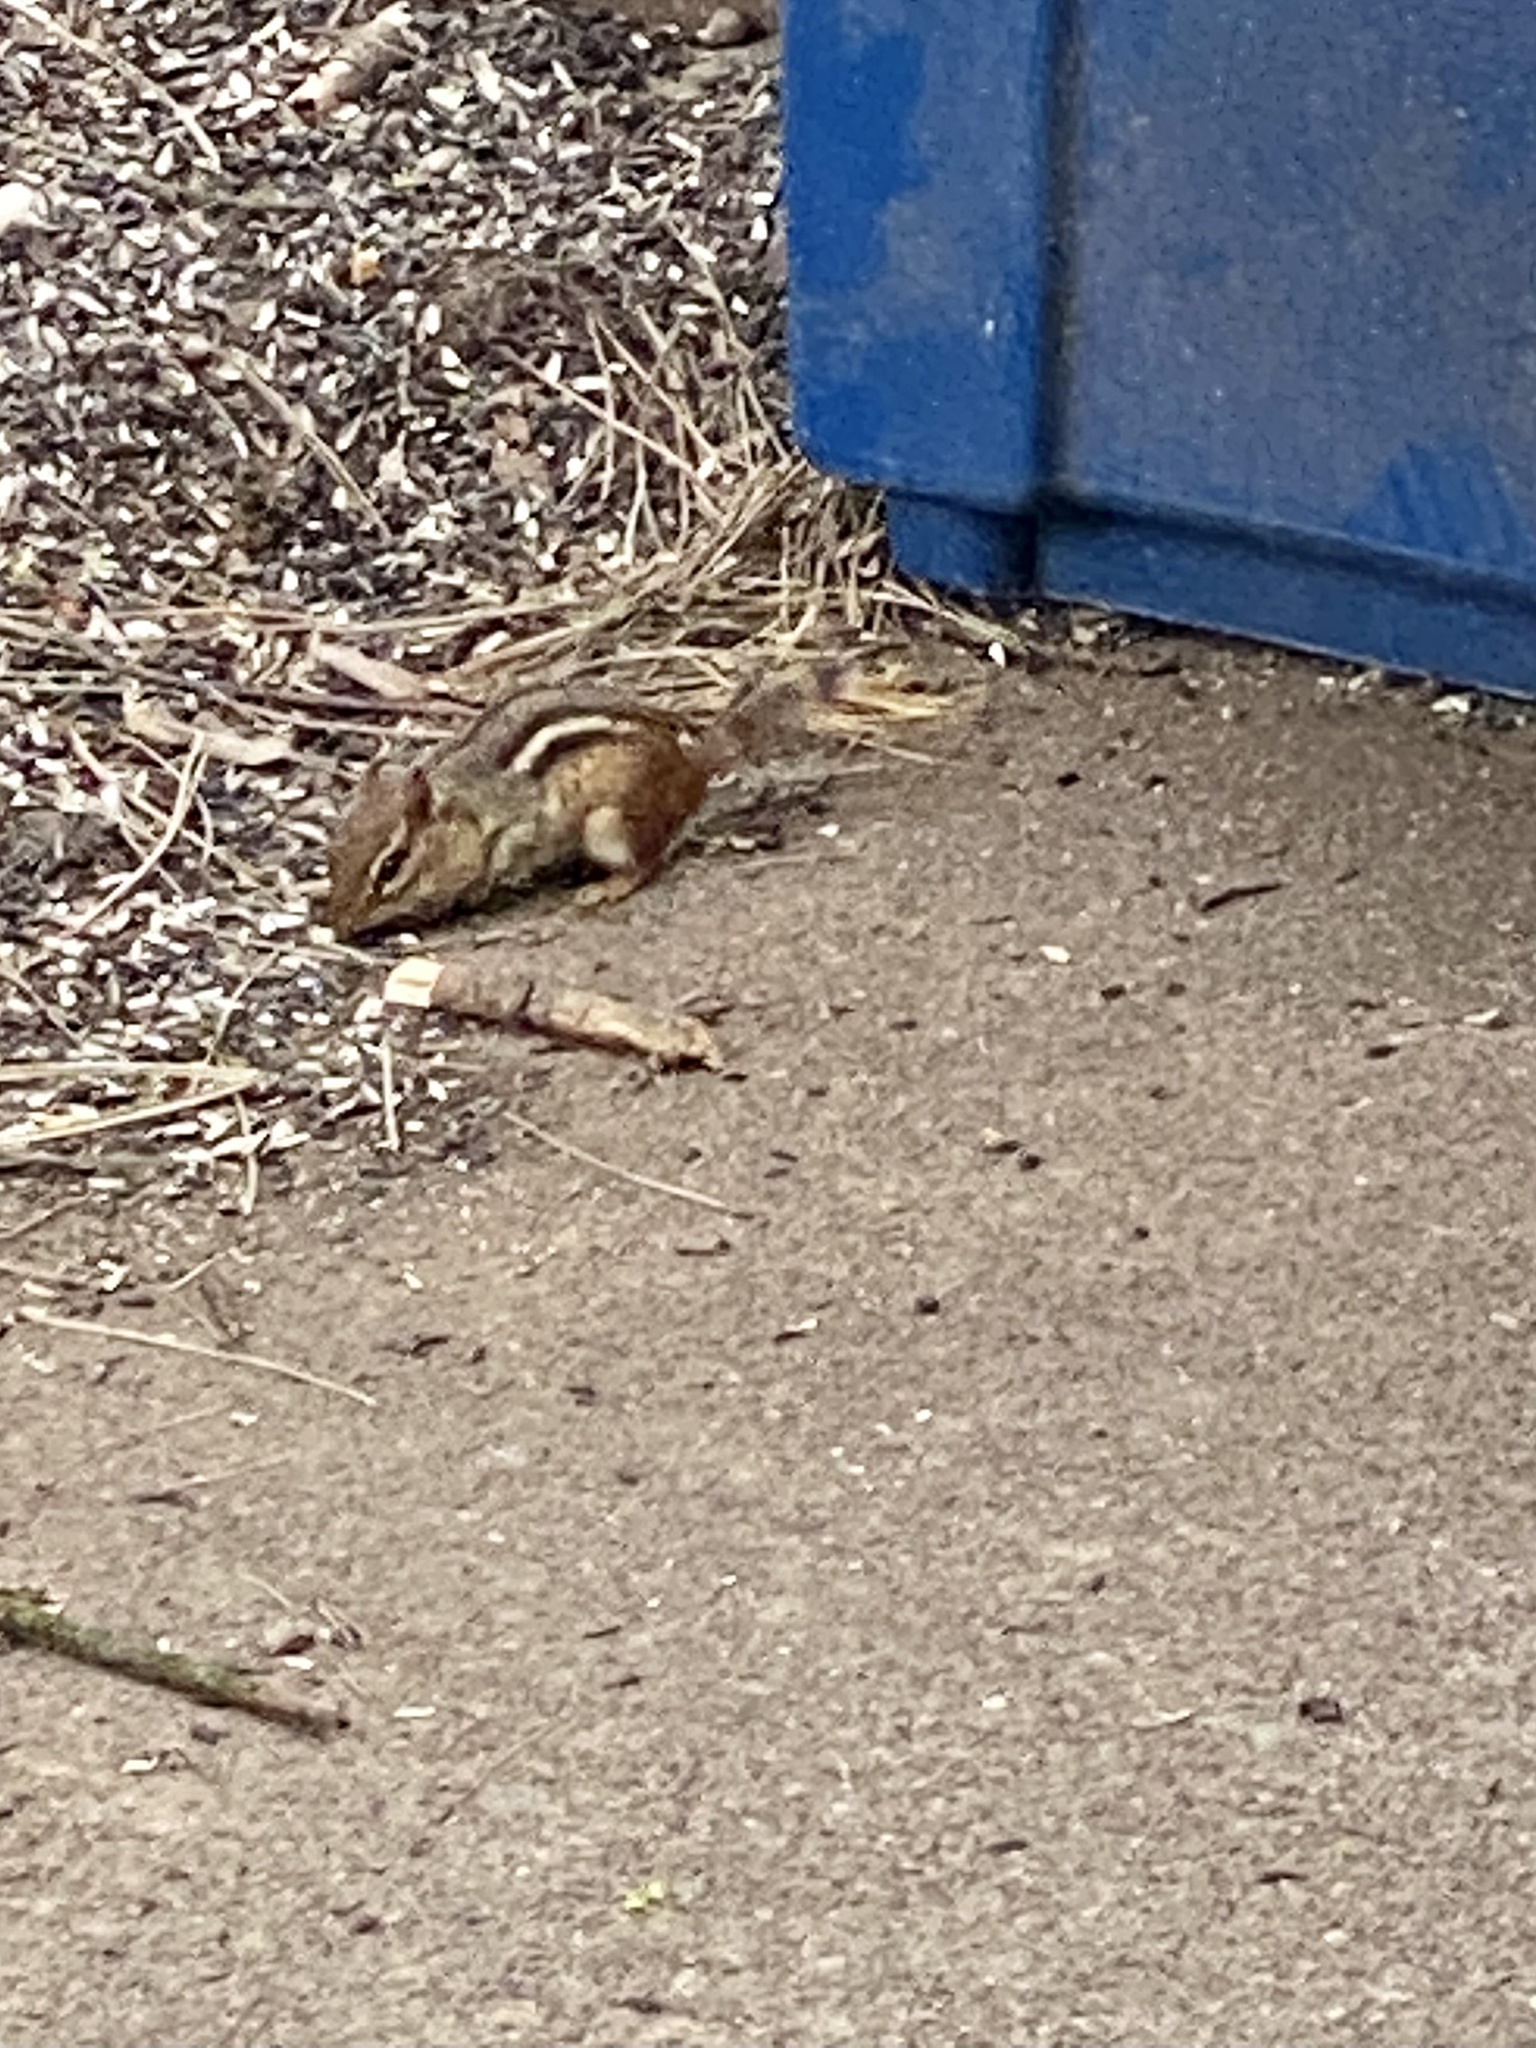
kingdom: Animalia
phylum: Chordata
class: Mammalia
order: Rodentia
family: Sciuridae
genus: Tamias
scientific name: Tamias striatus
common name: Eastern chipmunk
